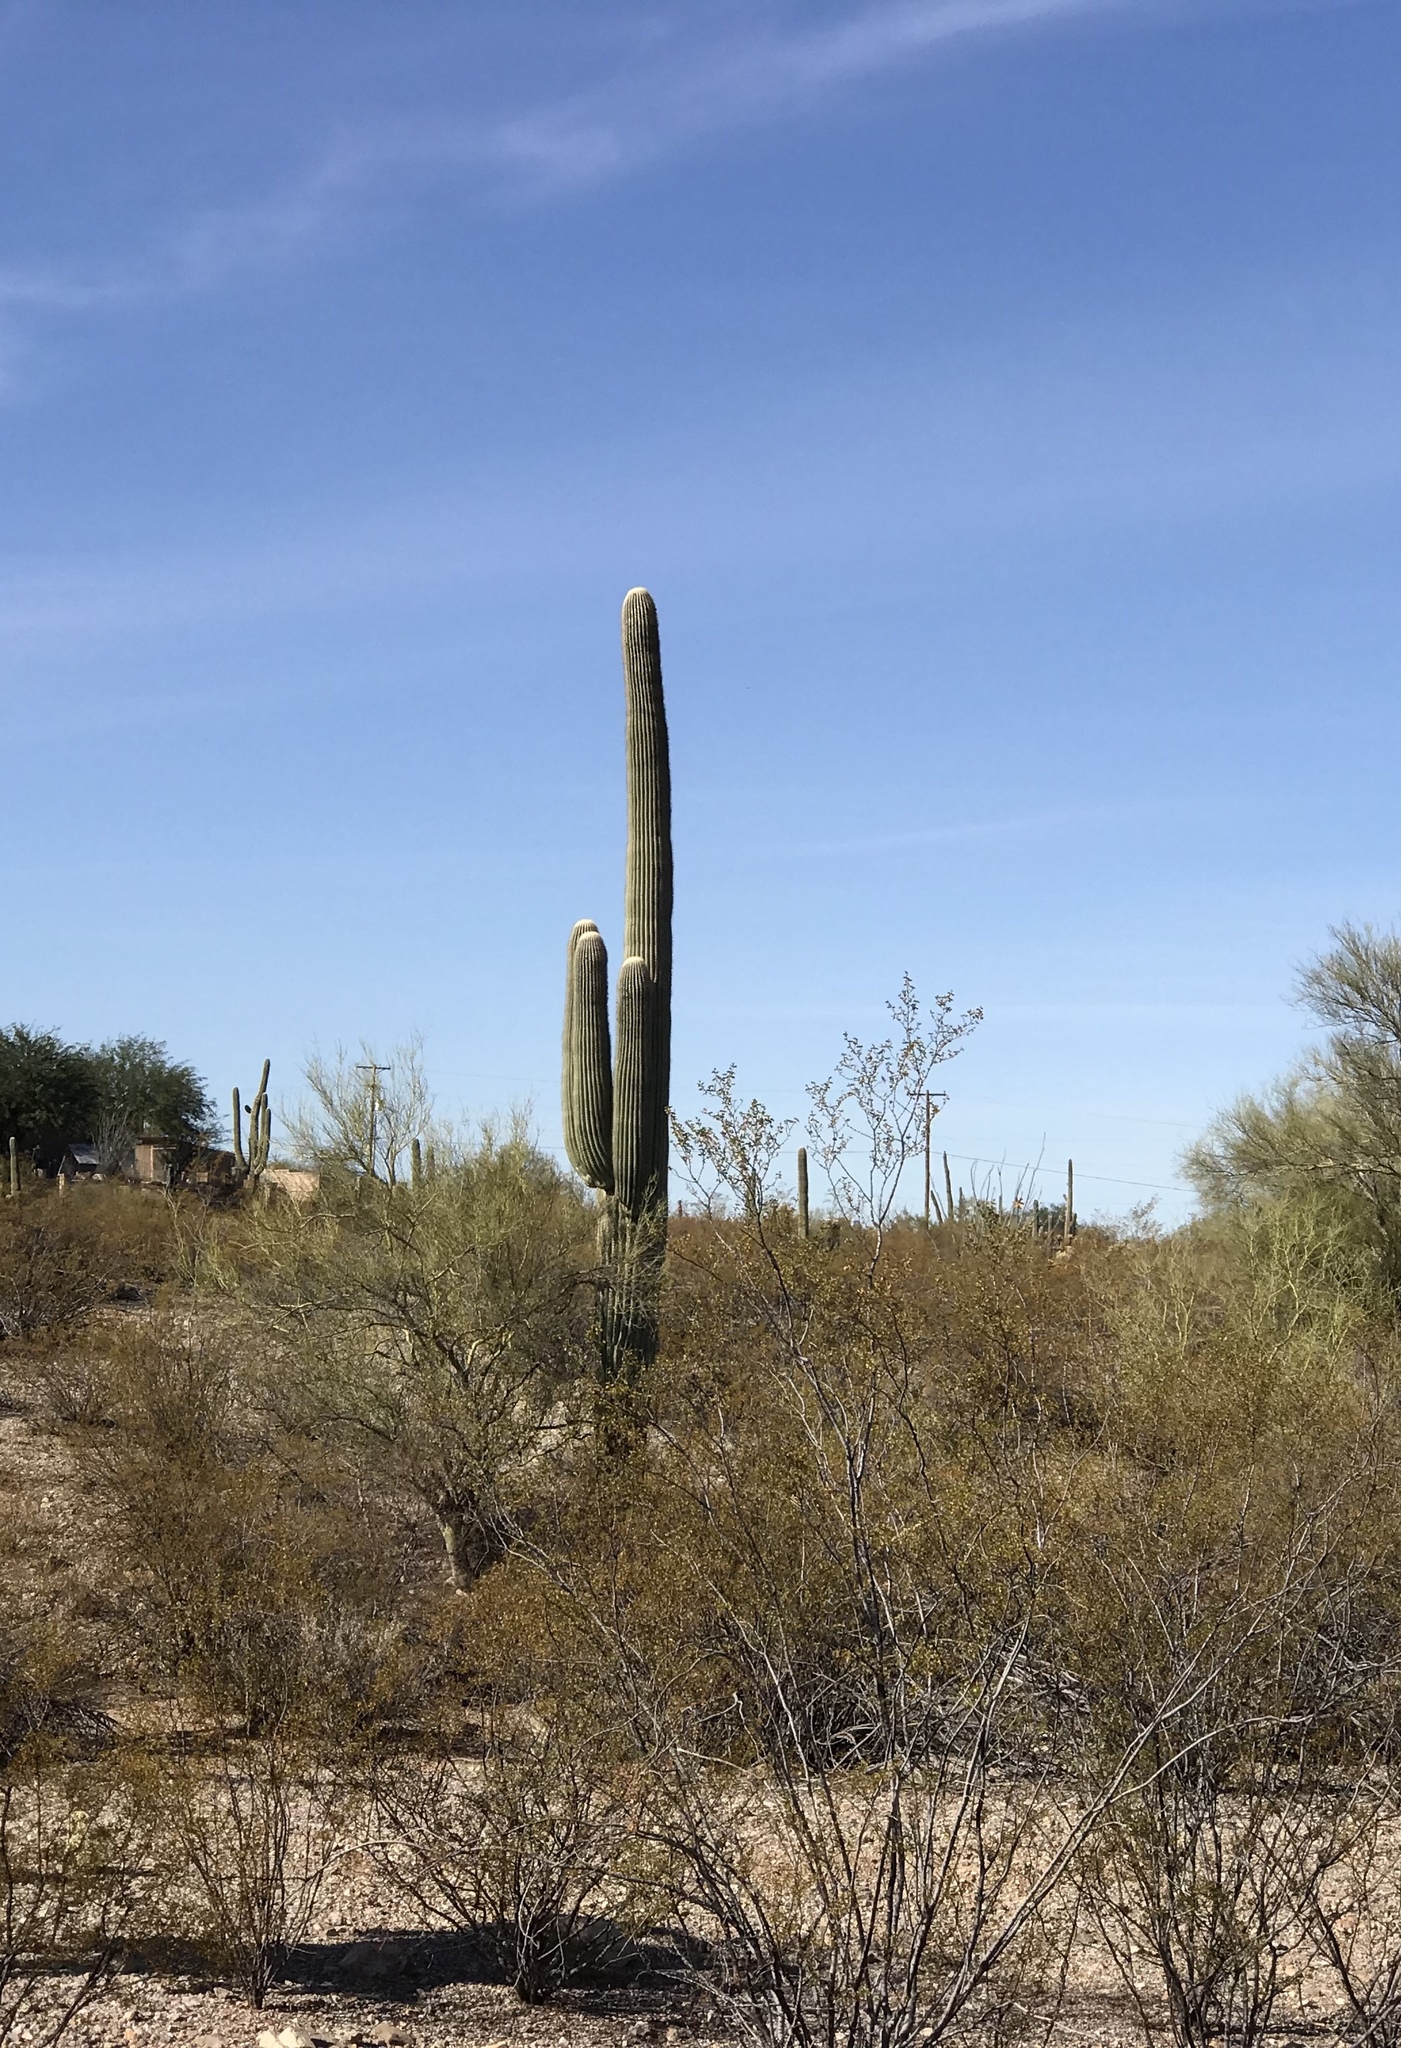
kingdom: Plantae
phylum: Tracheophyta
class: Magnoliopsida
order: Caryophyllales
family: Cactaceae
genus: Carnegiea
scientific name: Carnegiea gigantea
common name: Saguaro
